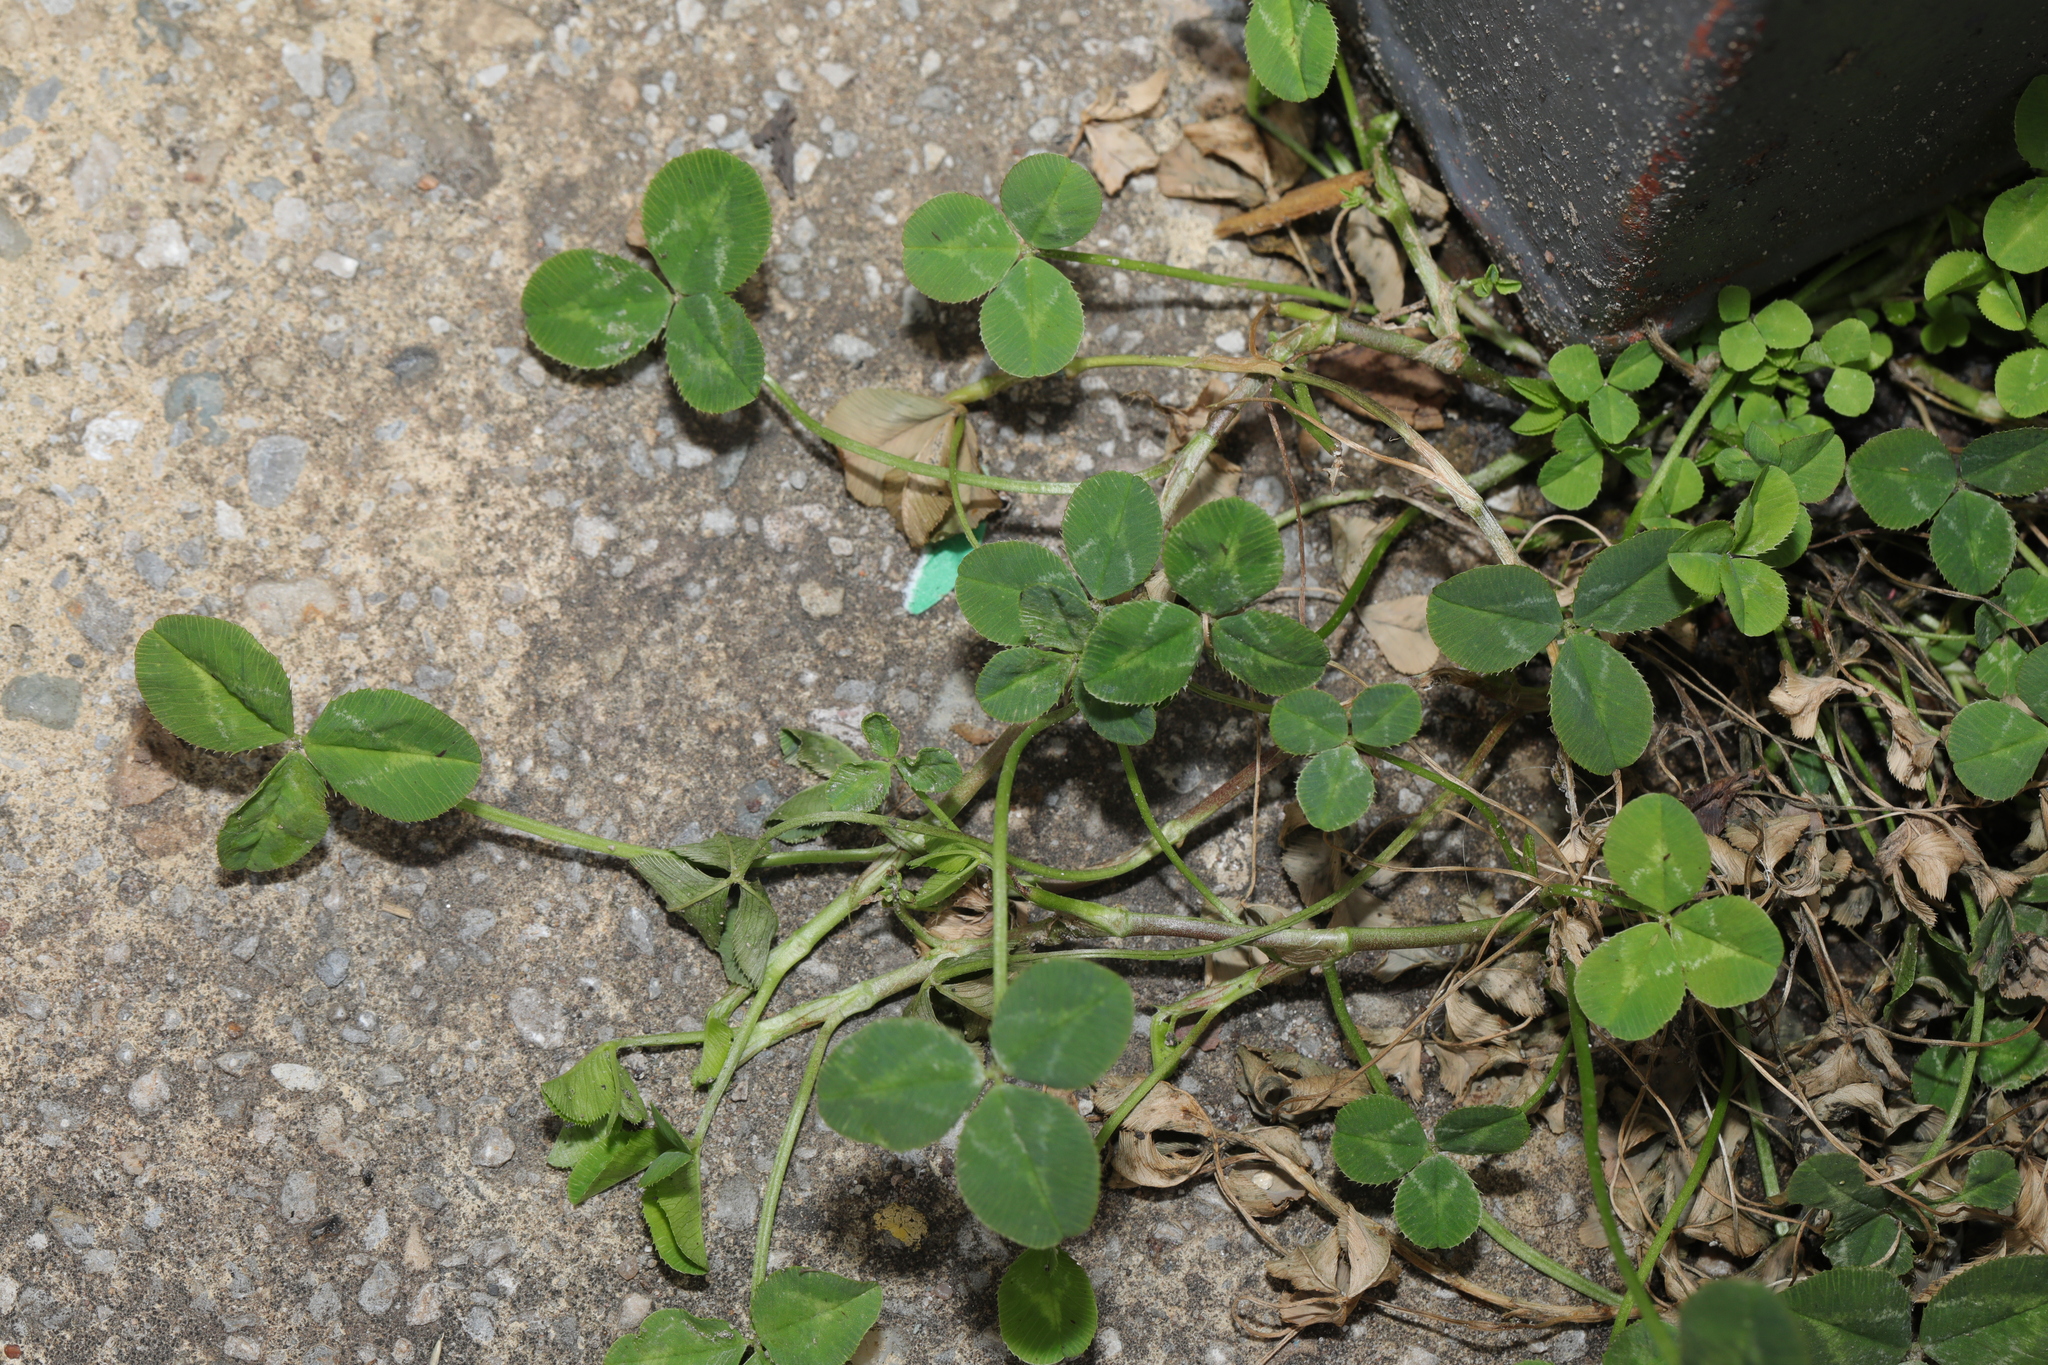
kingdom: Plantae
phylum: Tracheophyta
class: Magnoliopsida
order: Fabales
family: Fabaceae
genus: Trifolium
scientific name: Trifolium repens
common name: White clover
